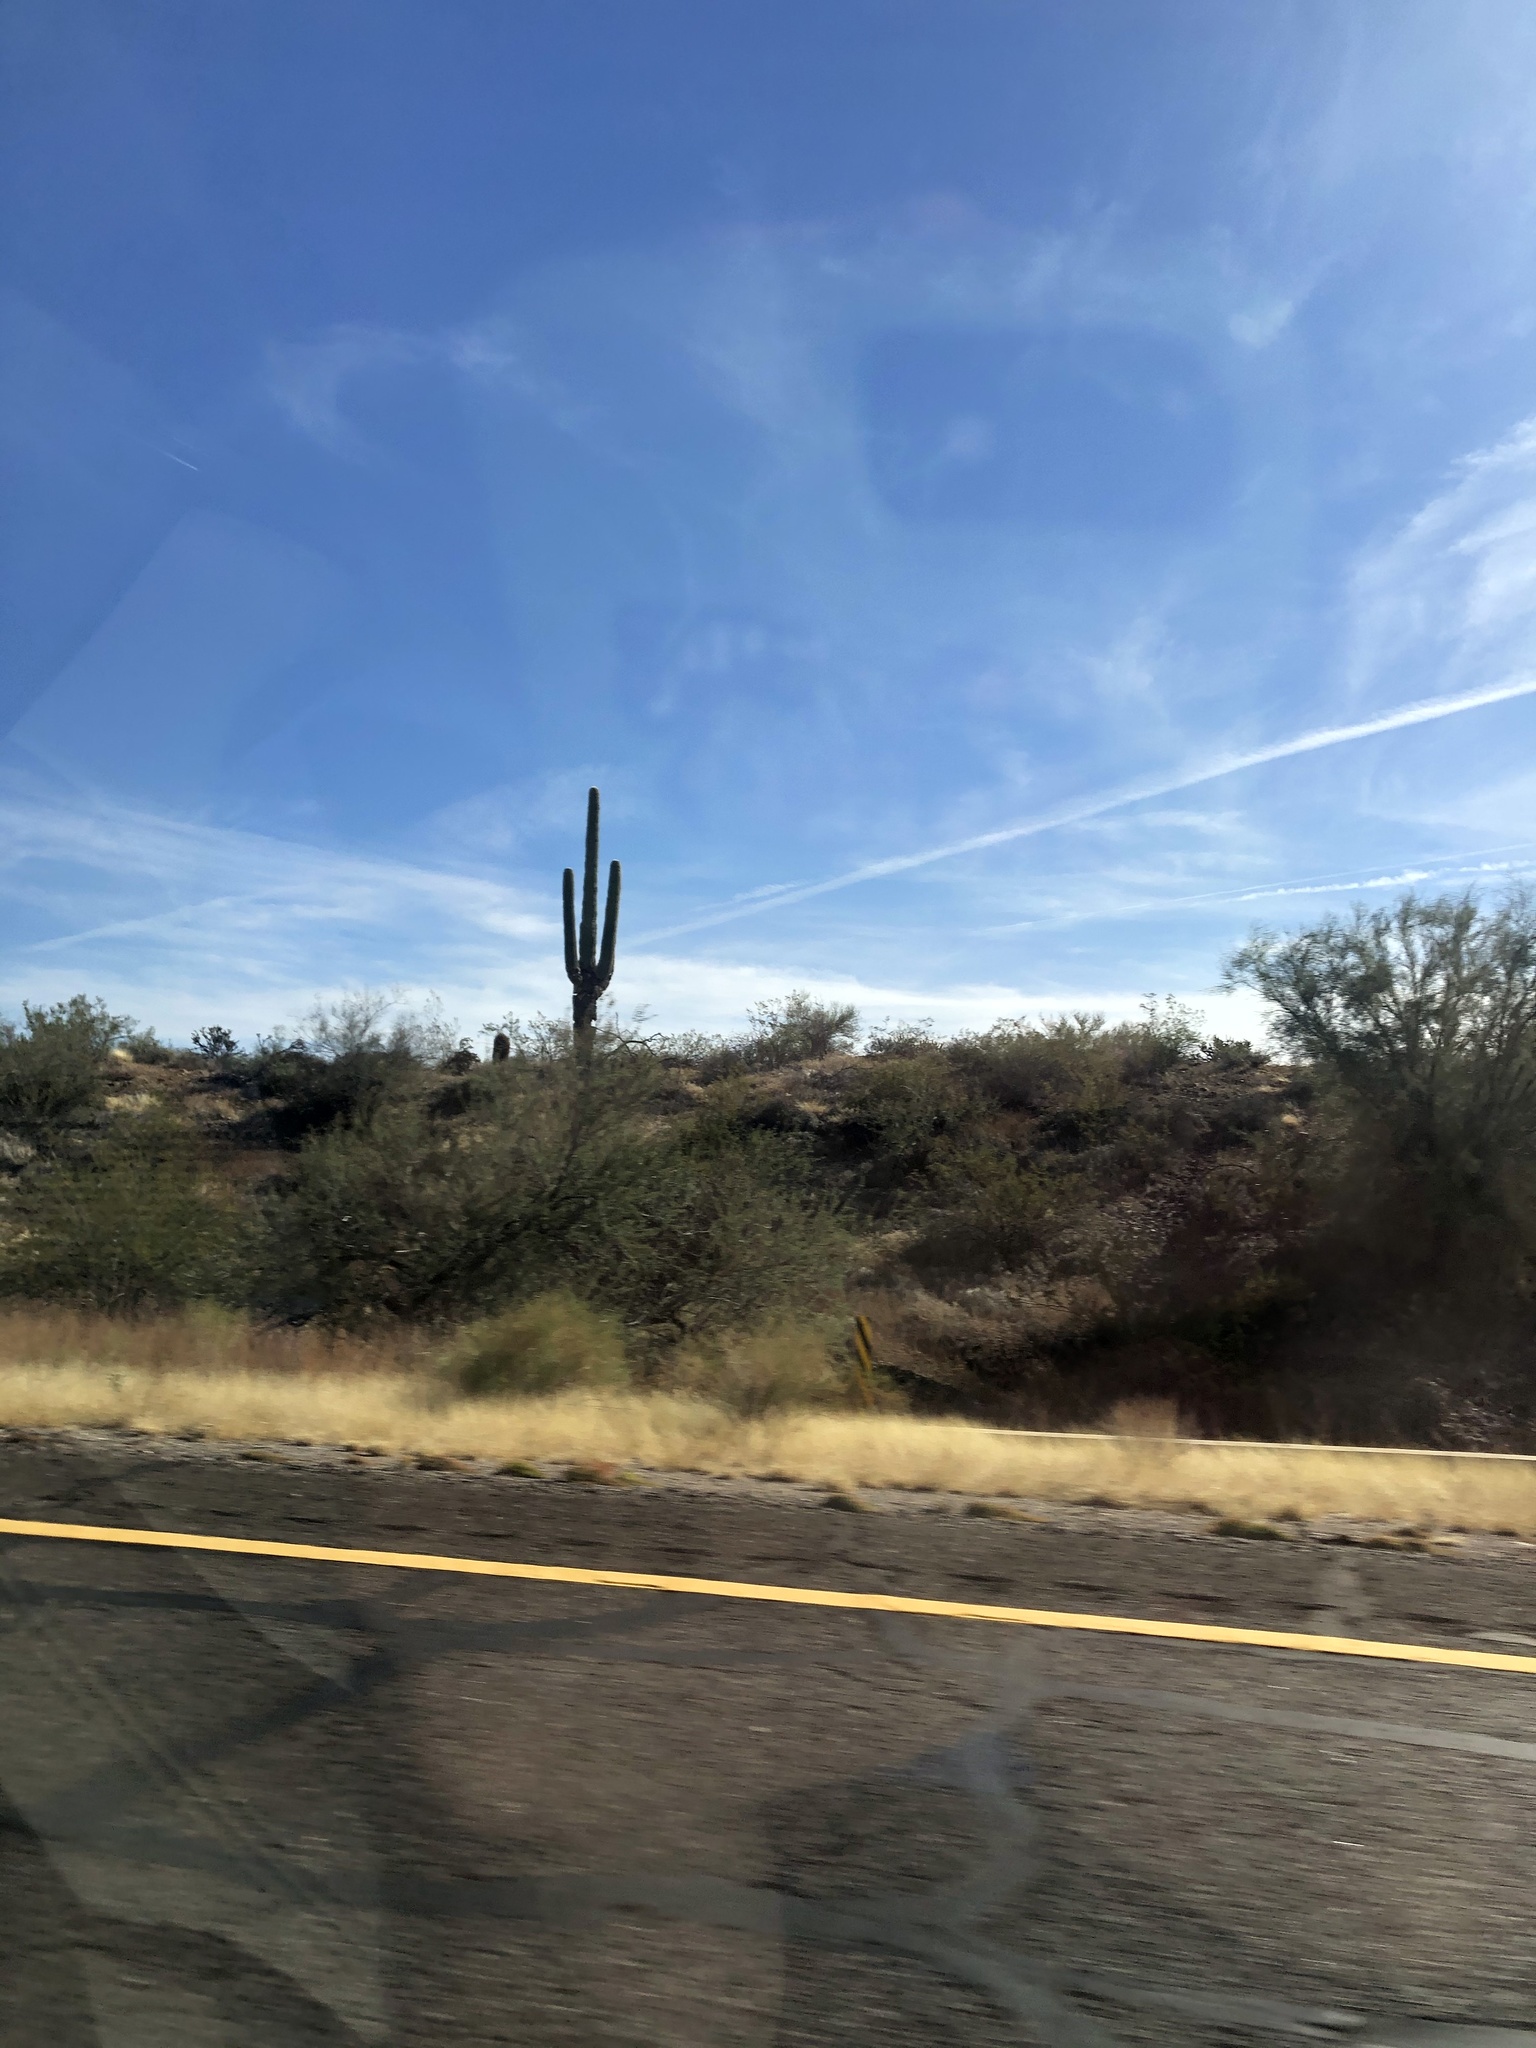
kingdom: Plantae
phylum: Tracheophyta
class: Magnoliopsida
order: Caryophyllales
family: Cactaceae
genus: Carnegiea
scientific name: Carnegiea gigantea
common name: Saguaro
